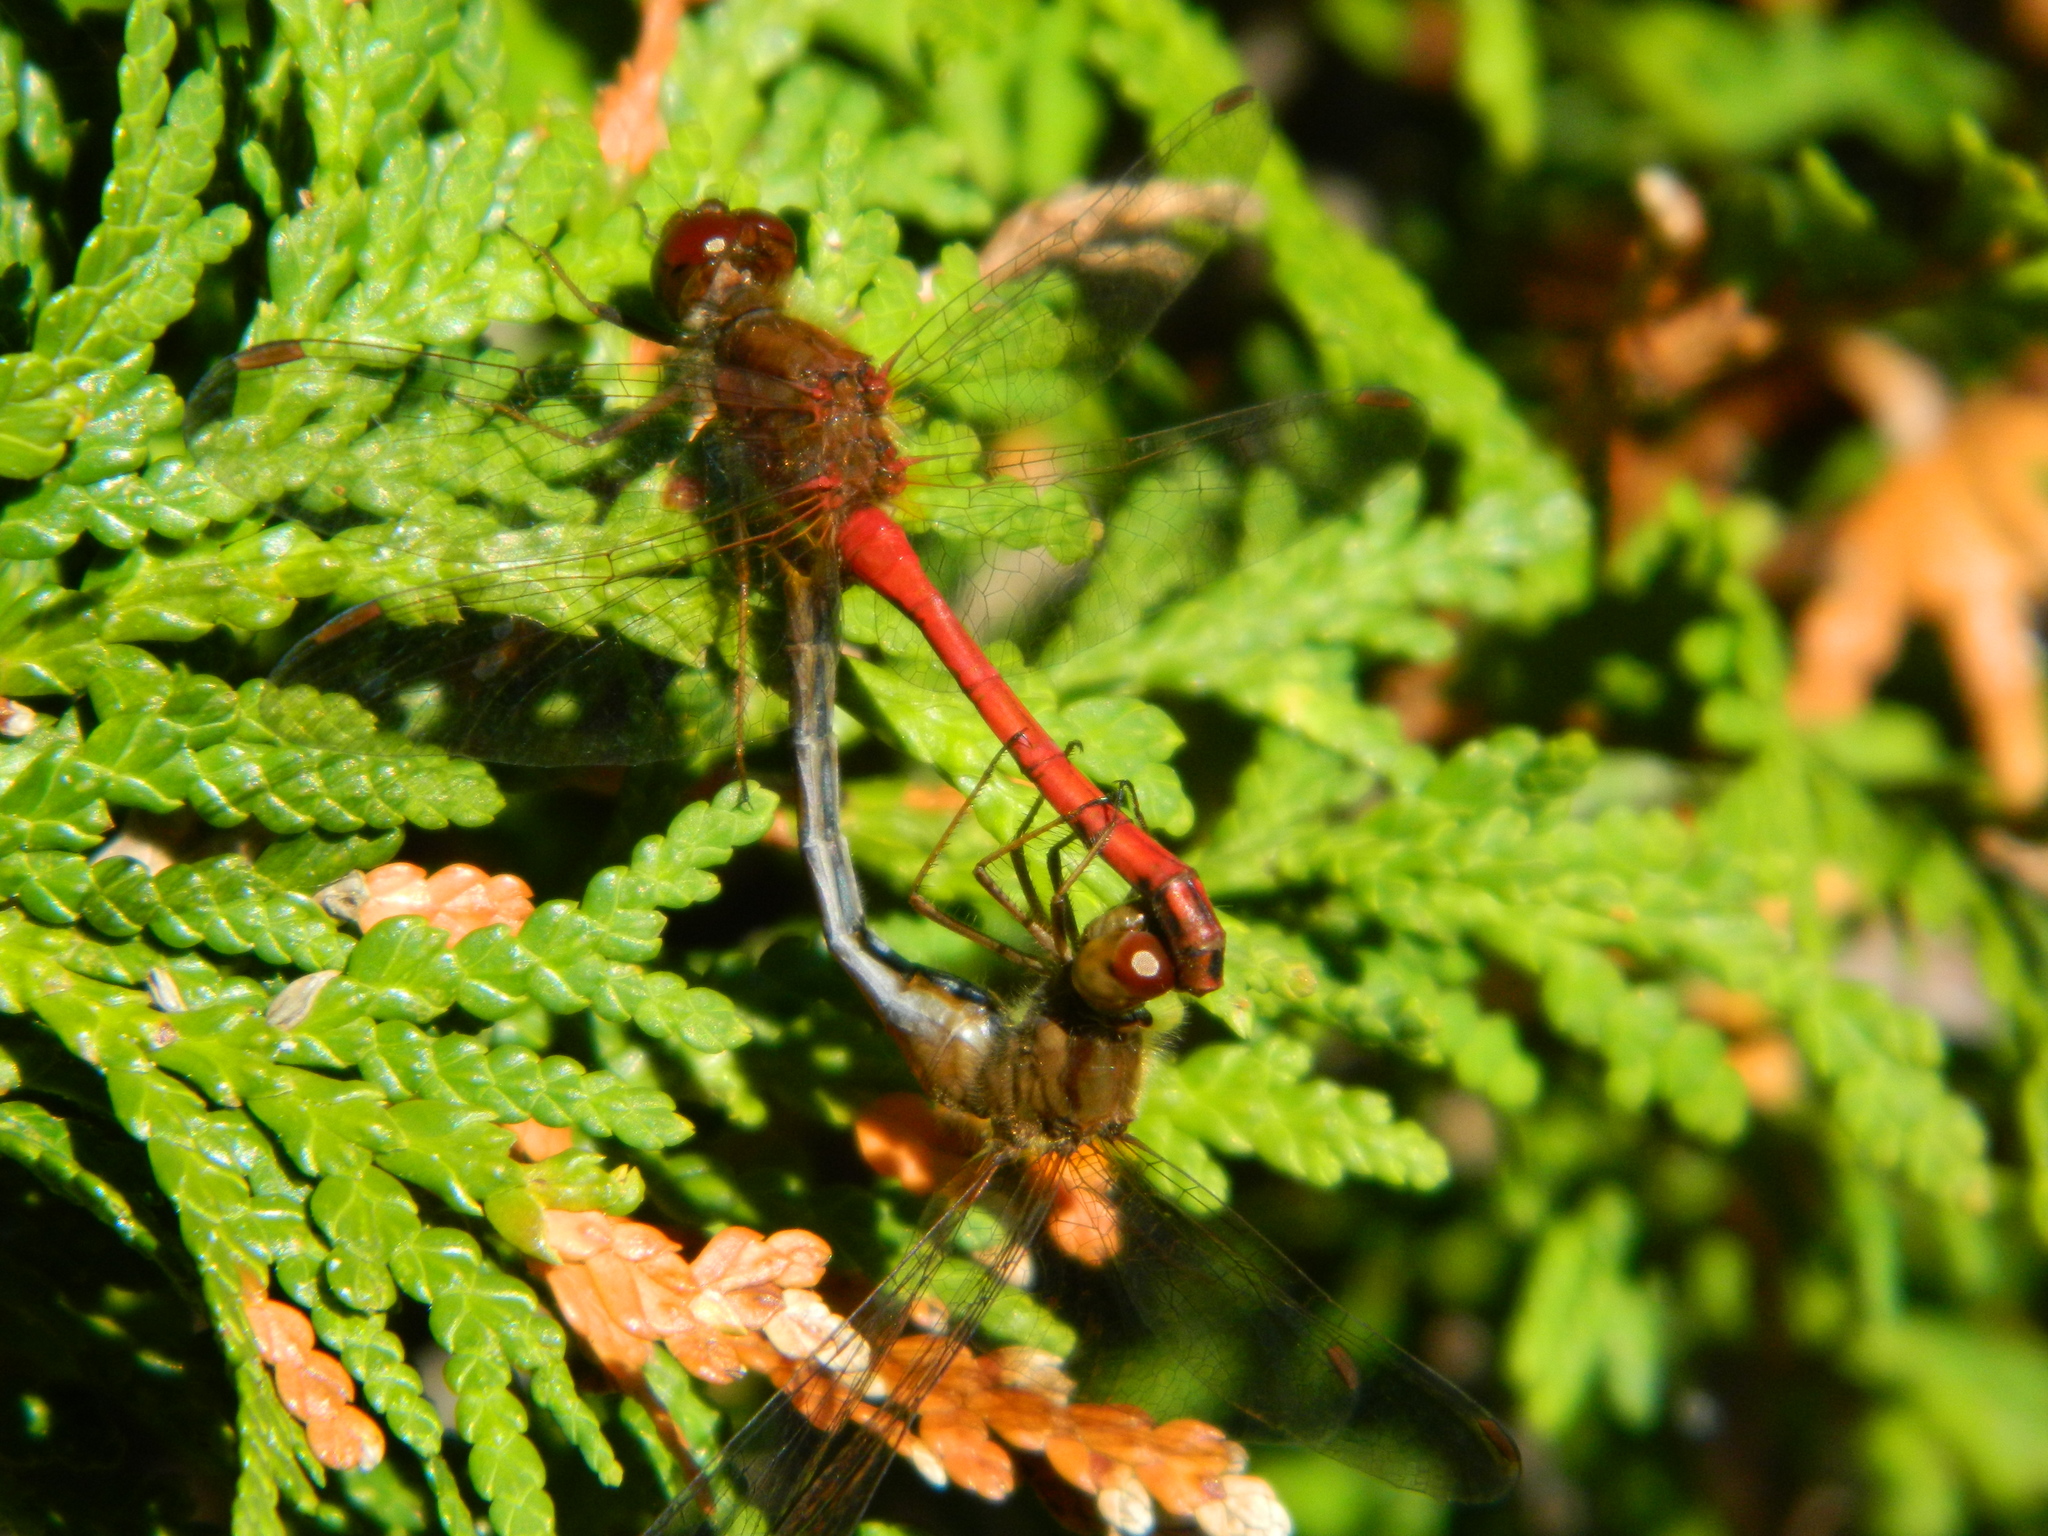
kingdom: Animalia
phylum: Arthropoda
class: Insecta
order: Odonata
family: Libellulidae
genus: Sympetrum
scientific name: Sympetrum vicinum
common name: Autumn meadowhawk
